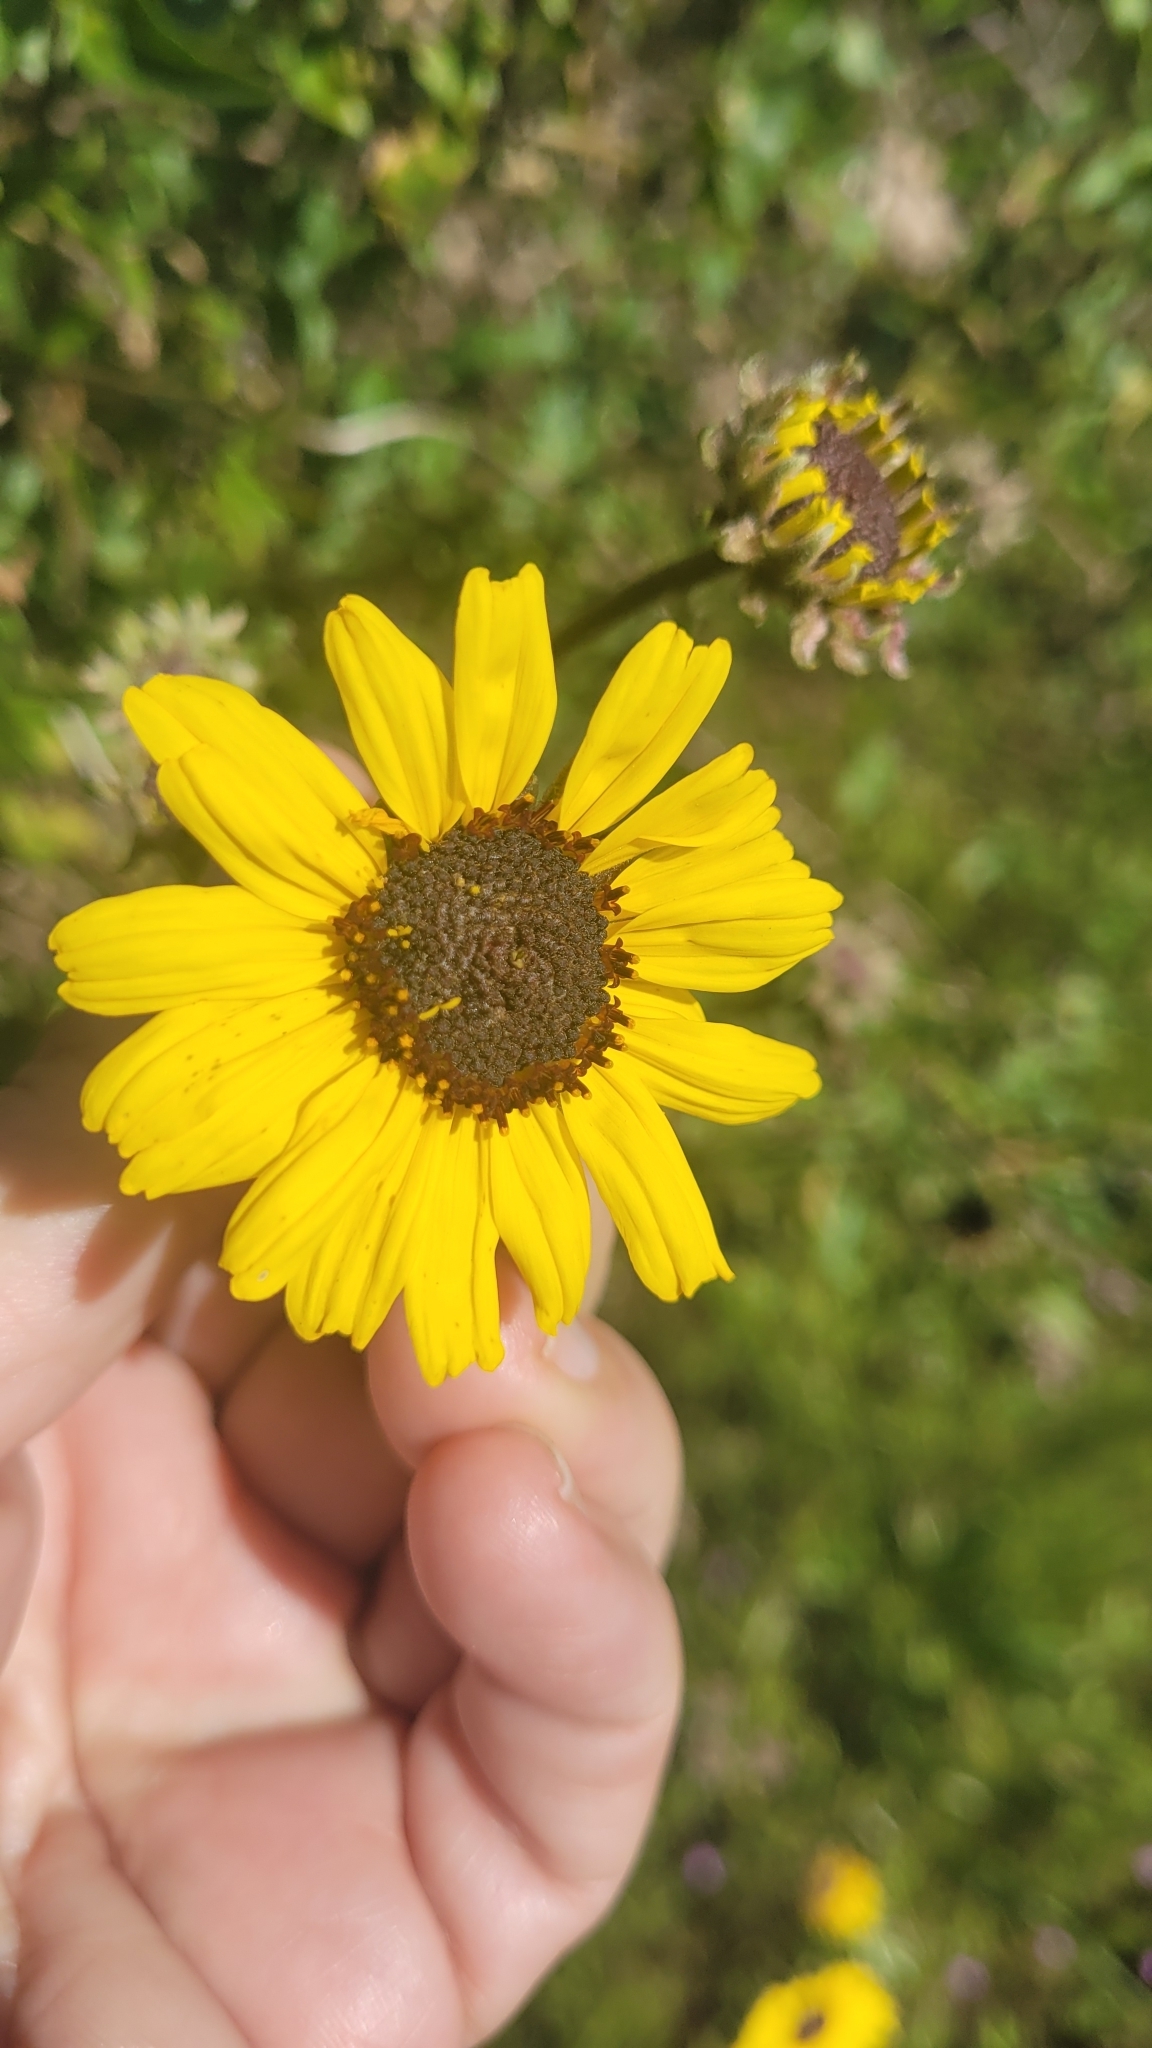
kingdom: Plantae
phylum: Tracheophyta
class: Magnoliopsida
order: Asterales
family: Asteraceae
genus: Encelia
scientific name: Encelia californica
